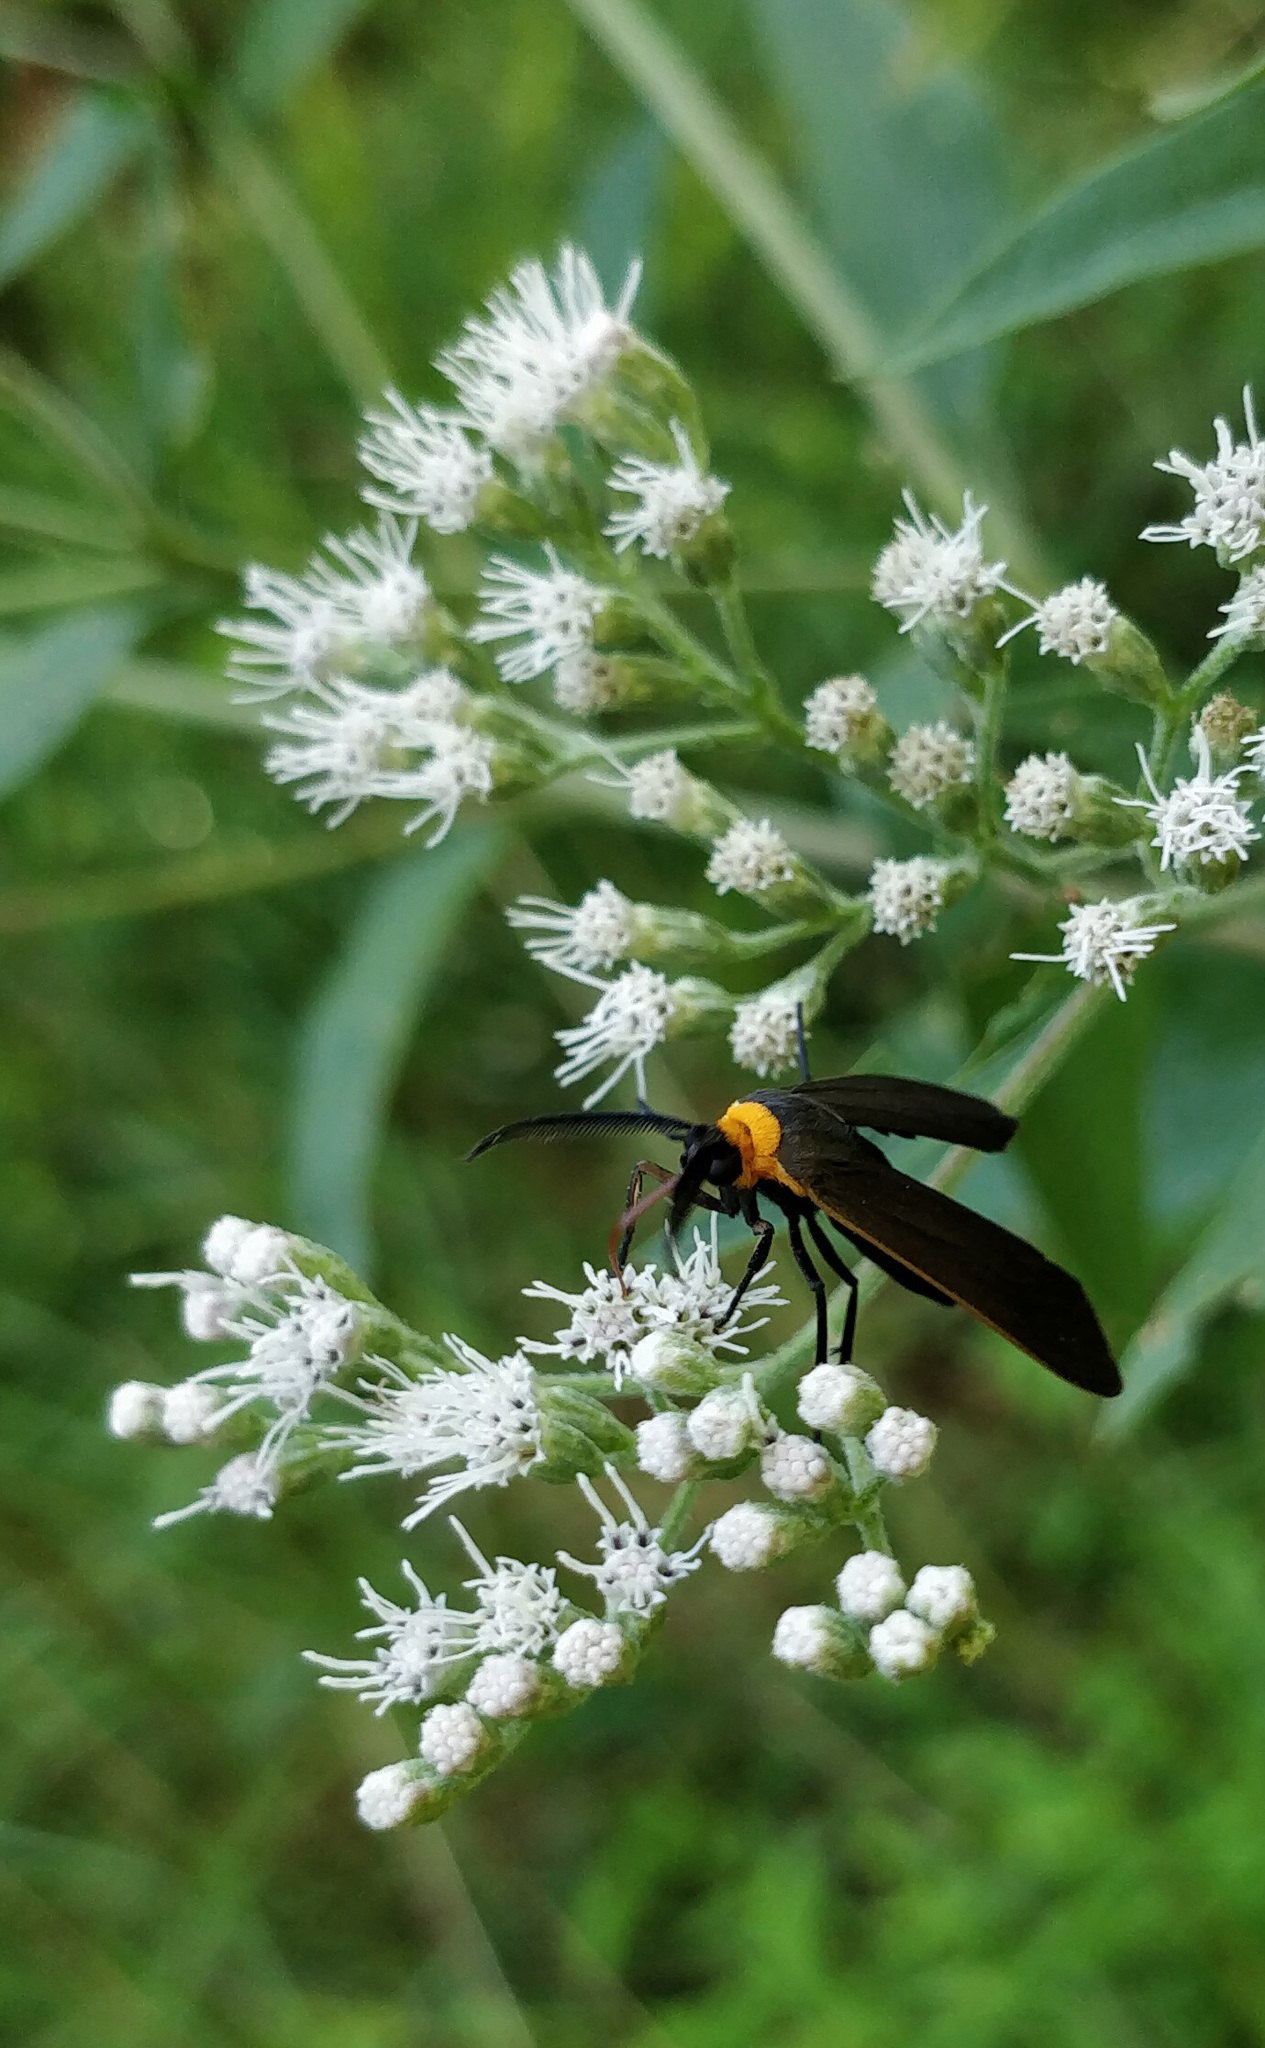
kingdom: Animalia
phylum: Arthropoda
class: Insecta
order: Lepidoptera
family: Erebidae
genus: Cisseps
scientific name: Cisseps fulvicollis
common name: Yellow-collared scape moth
